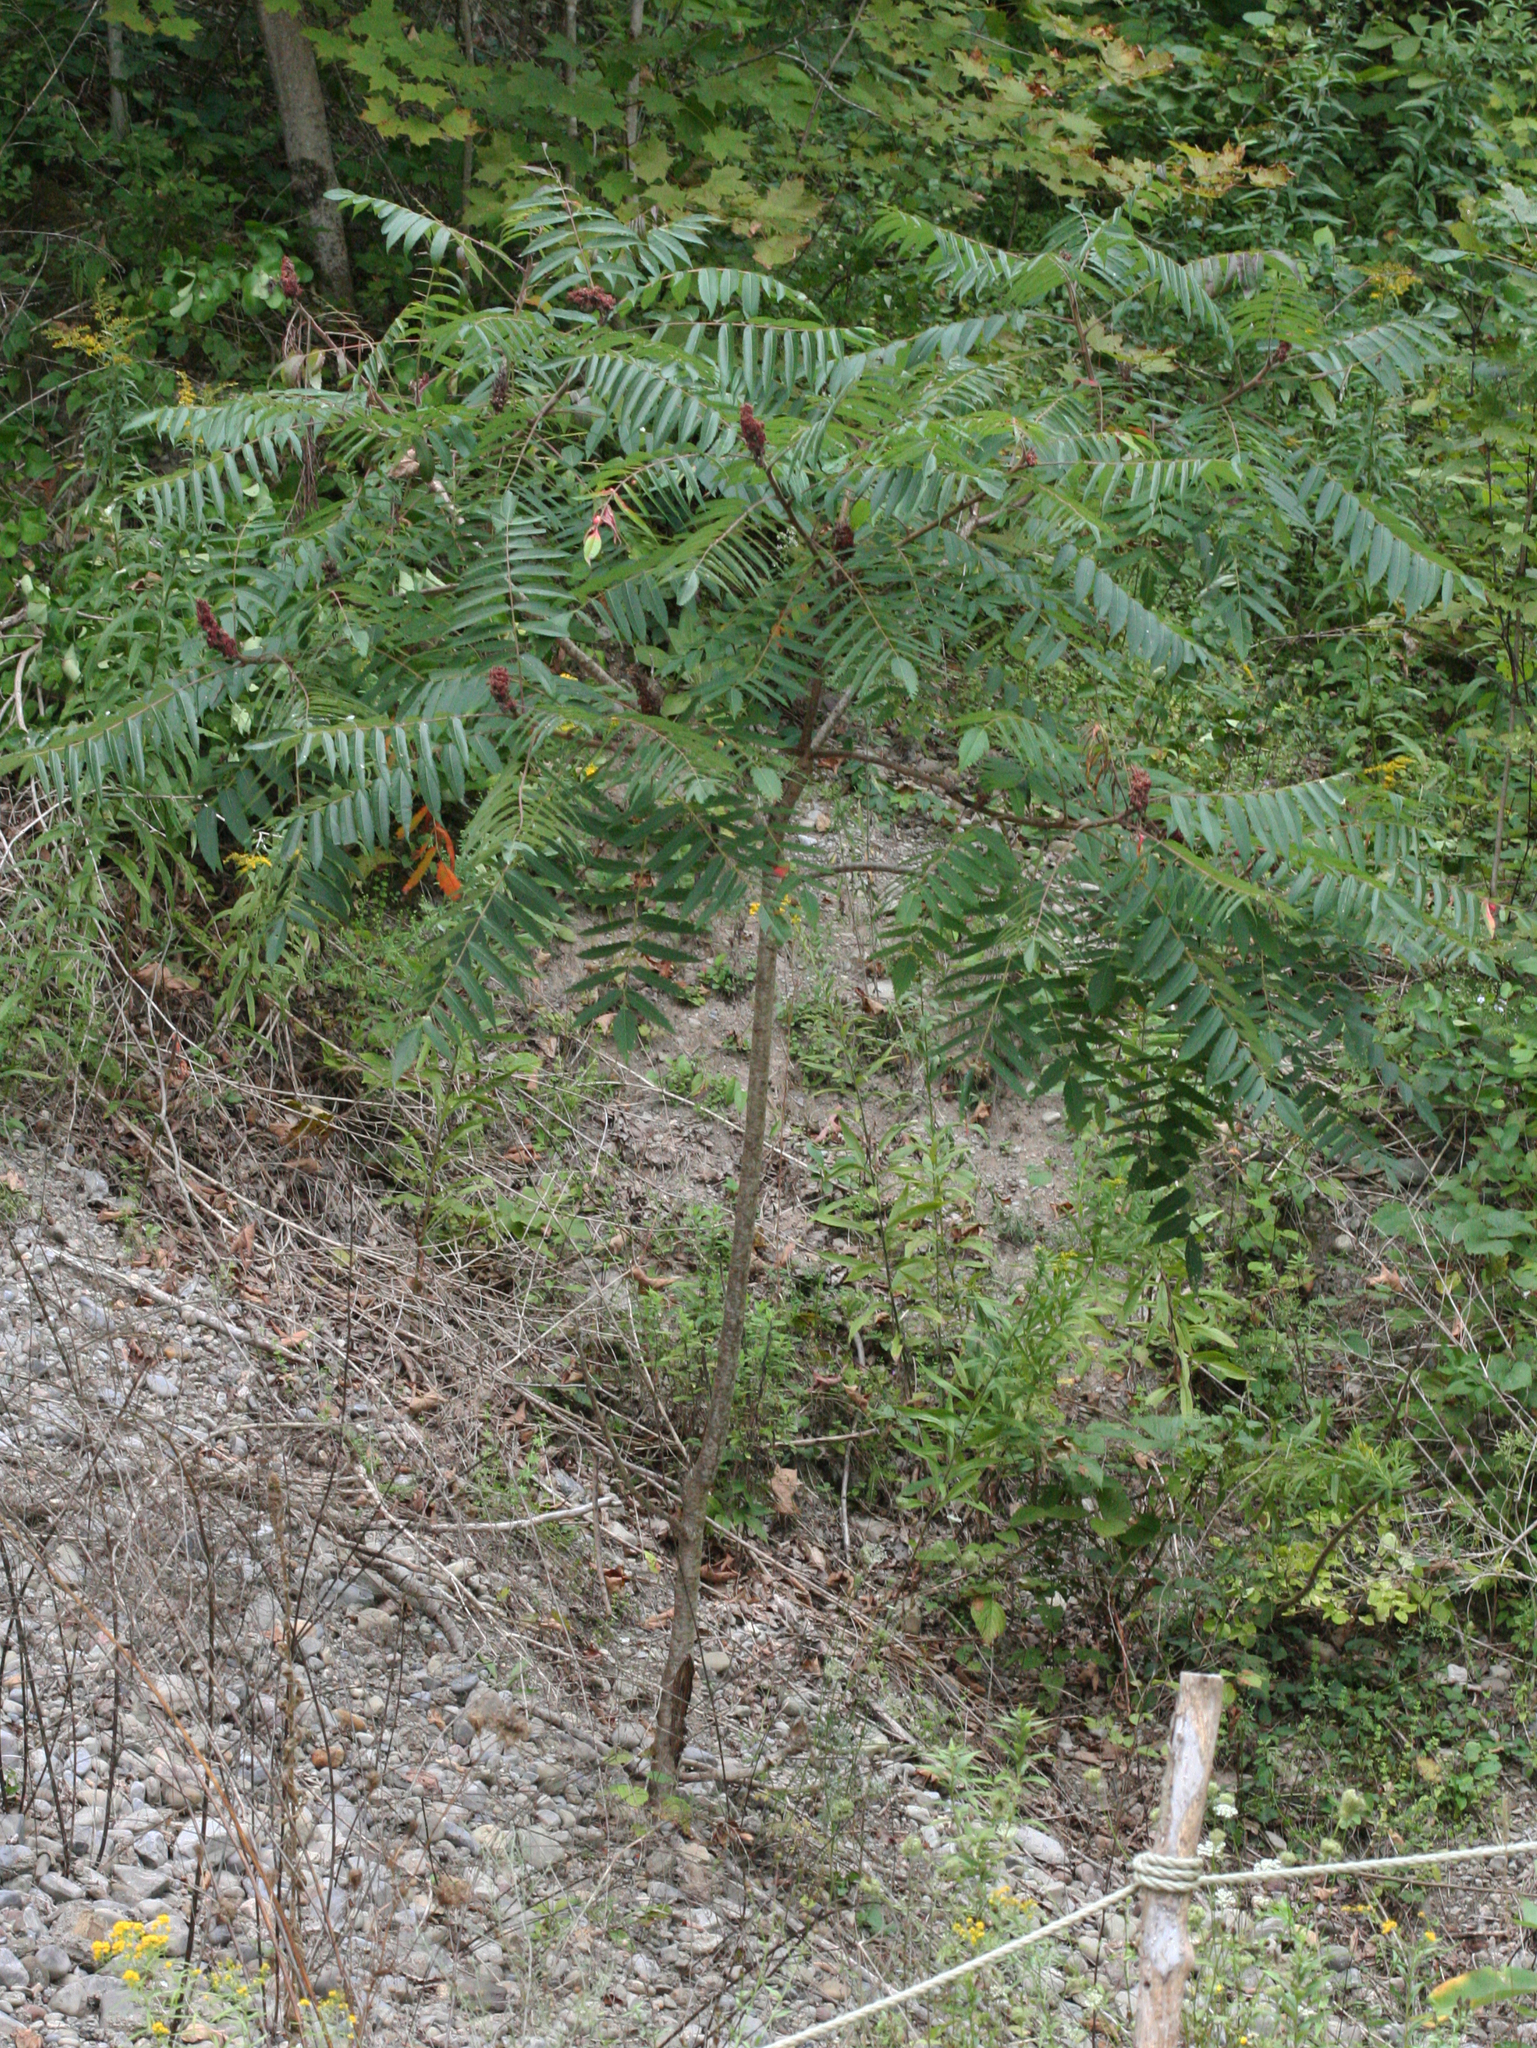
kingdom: Plantae
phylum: Tracheophyta
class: Magnoliopsida
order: Sapindales
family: Anacardiaceae
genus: Rhus
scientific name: Rhus typhina
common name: Staghorn sumac
